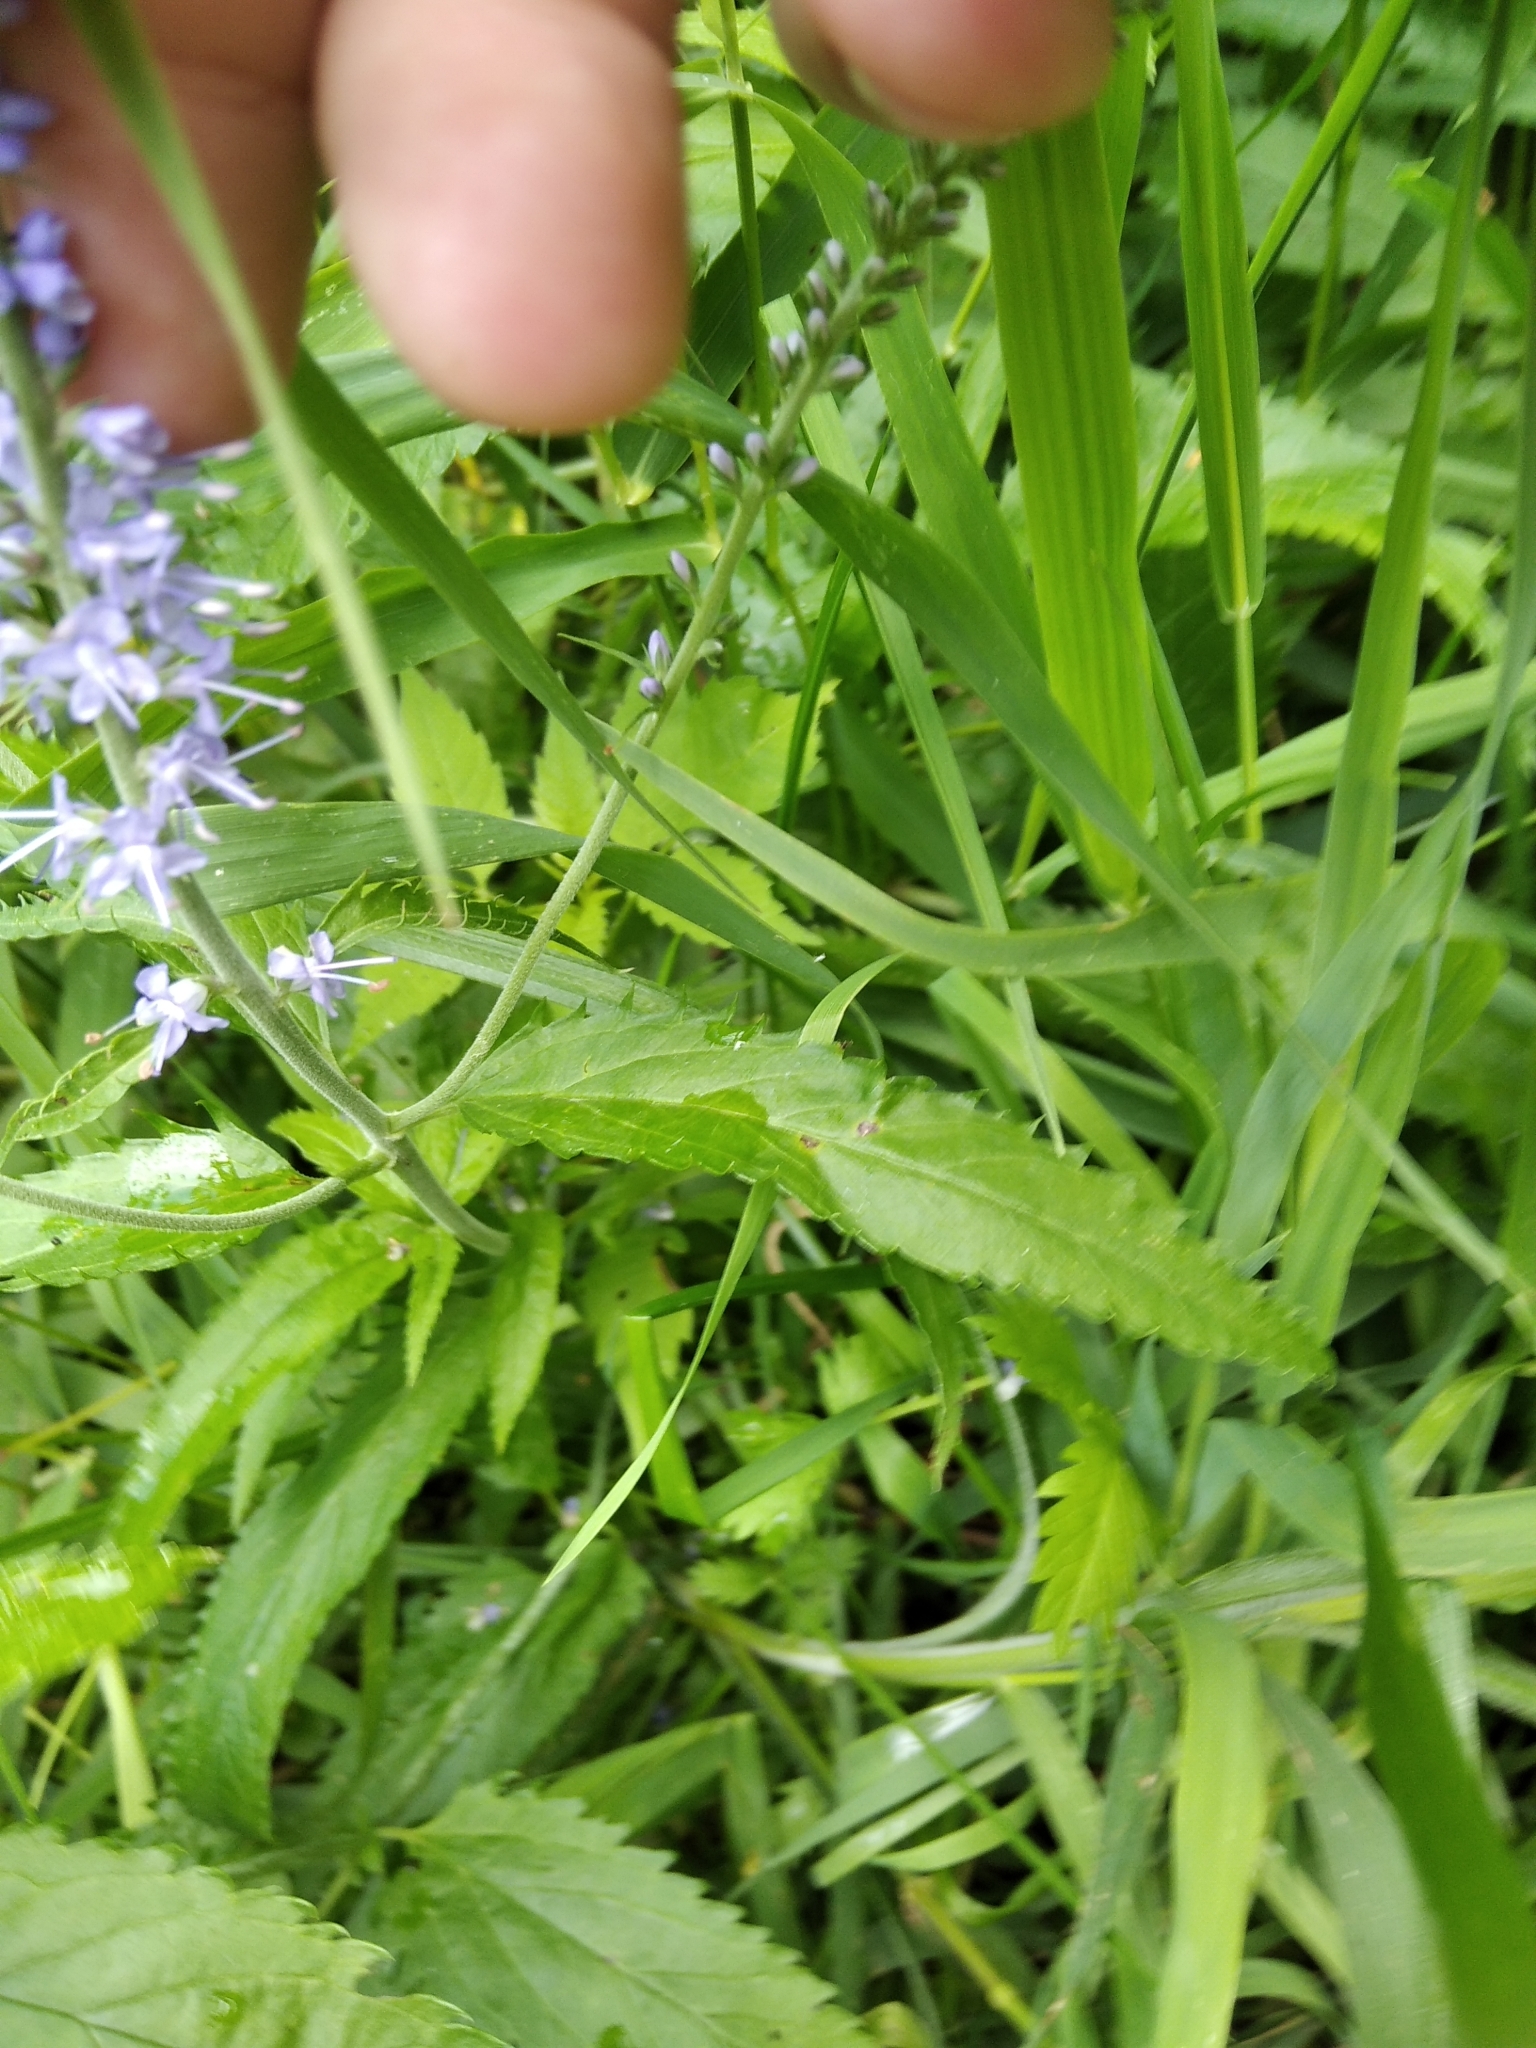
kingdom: Plantae
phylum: Tracheophyta
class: Magnoliopsida
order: Lamiales
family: Plantaginaceae
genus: Veronica
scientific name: Veronica longifolia
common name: Garden speedwell
